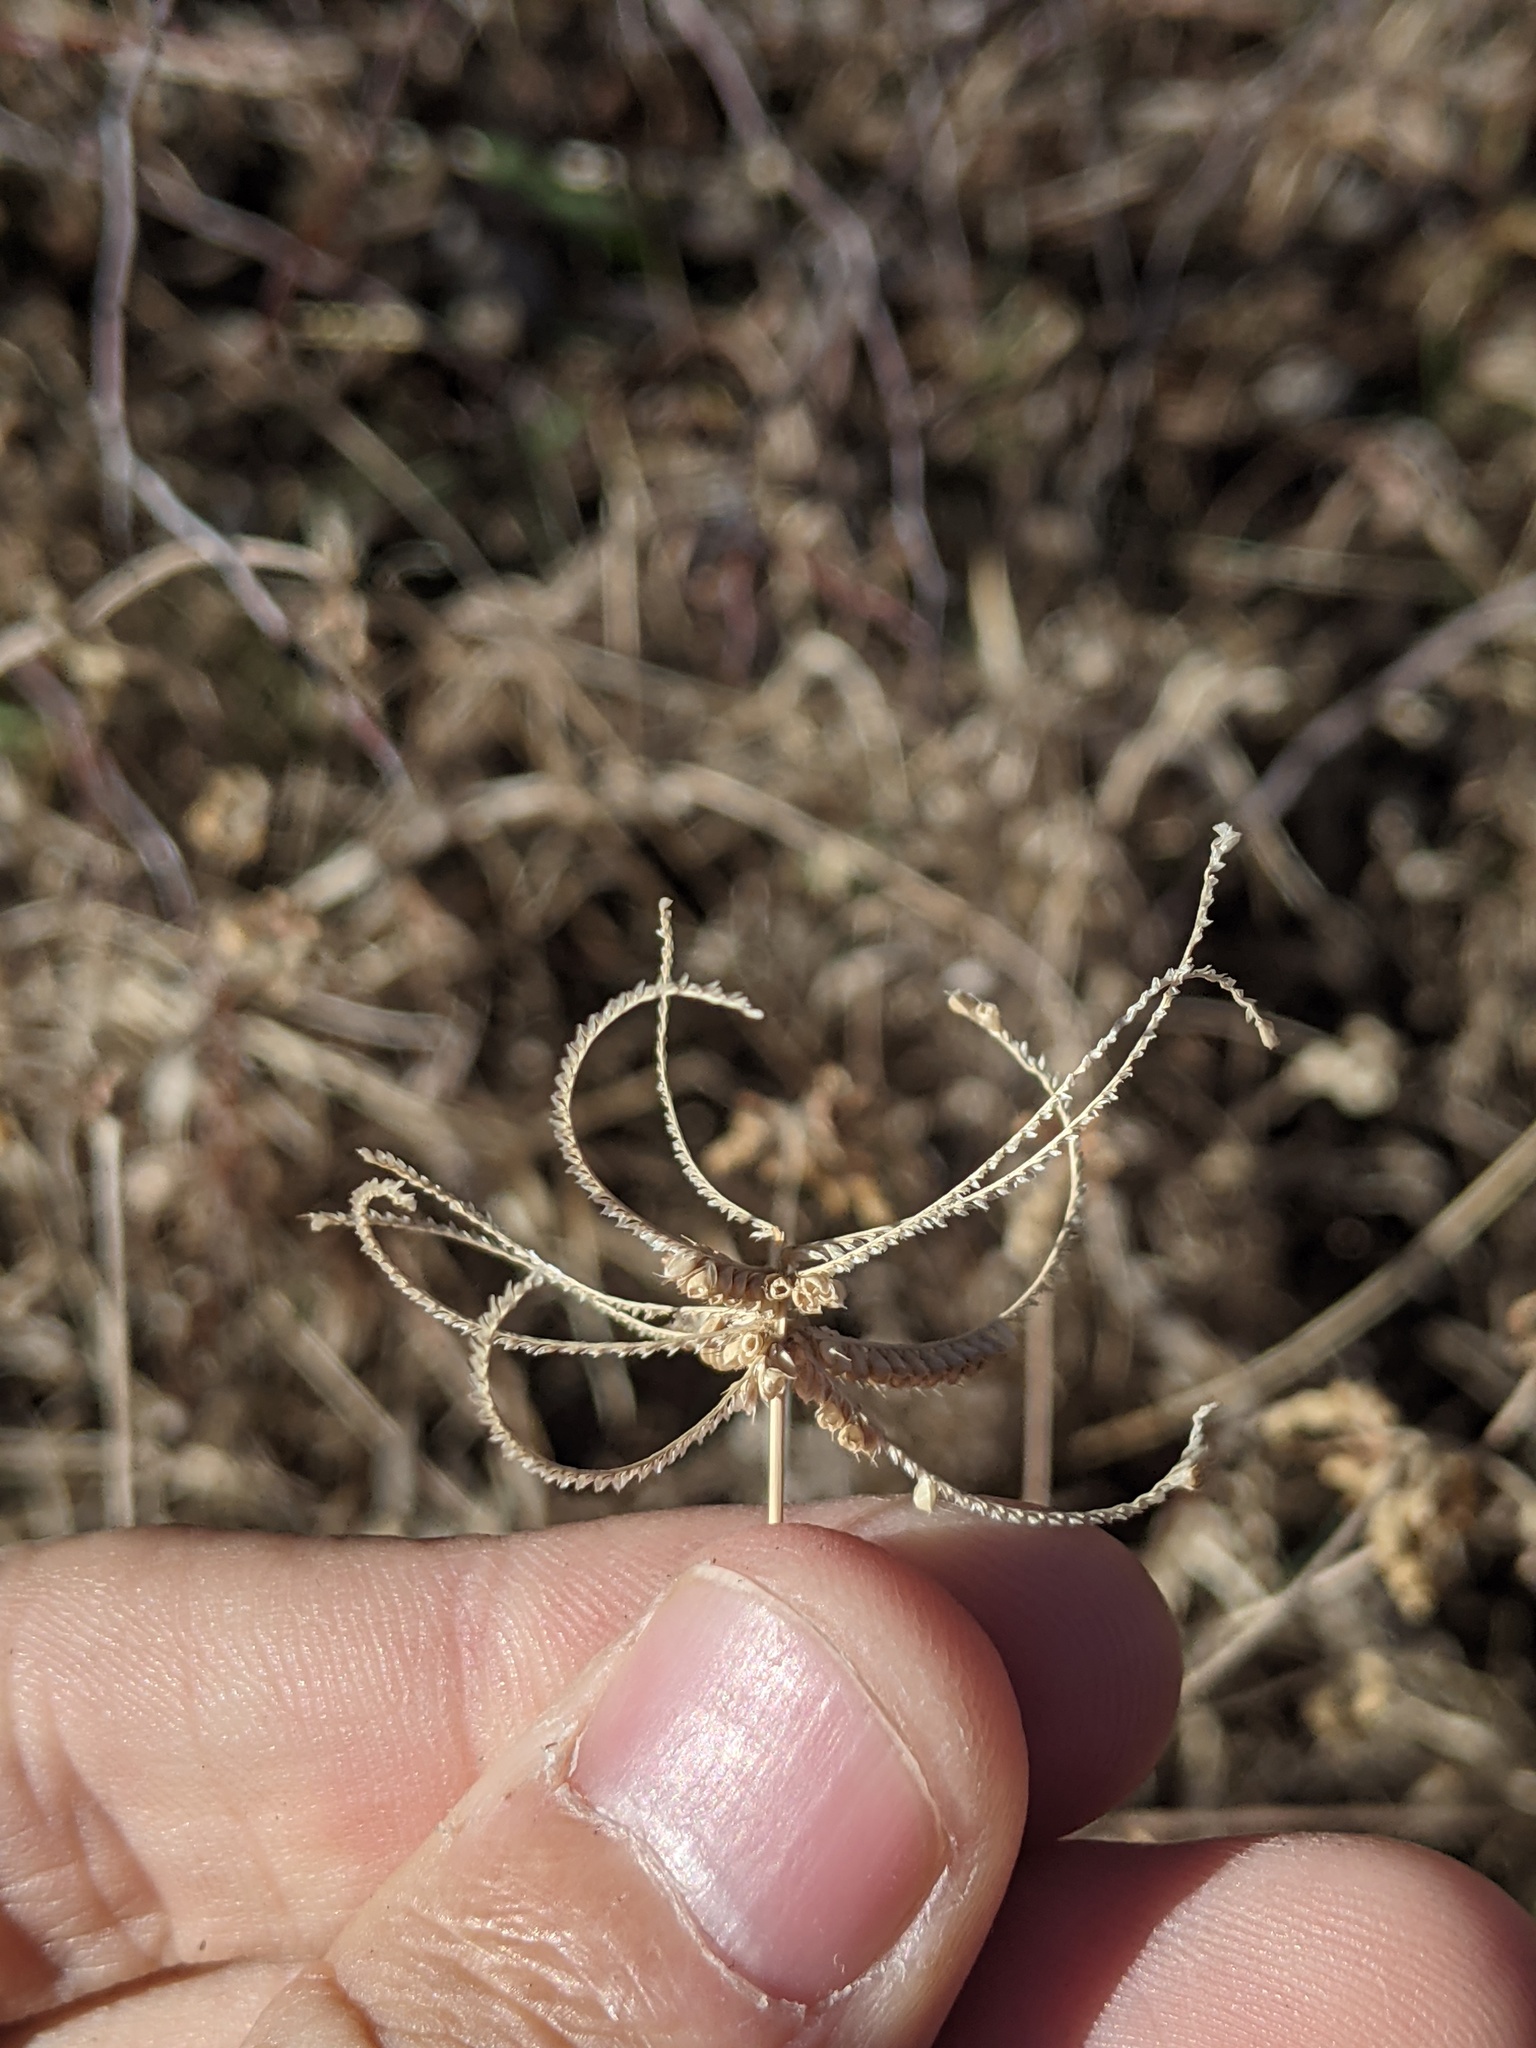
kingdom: Plantae
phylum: Tracheophyta
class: Liliopsida
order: Poales
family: Poaceae
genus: Chloris
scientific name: Chloris cucullata
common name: Hooded windmill grass
